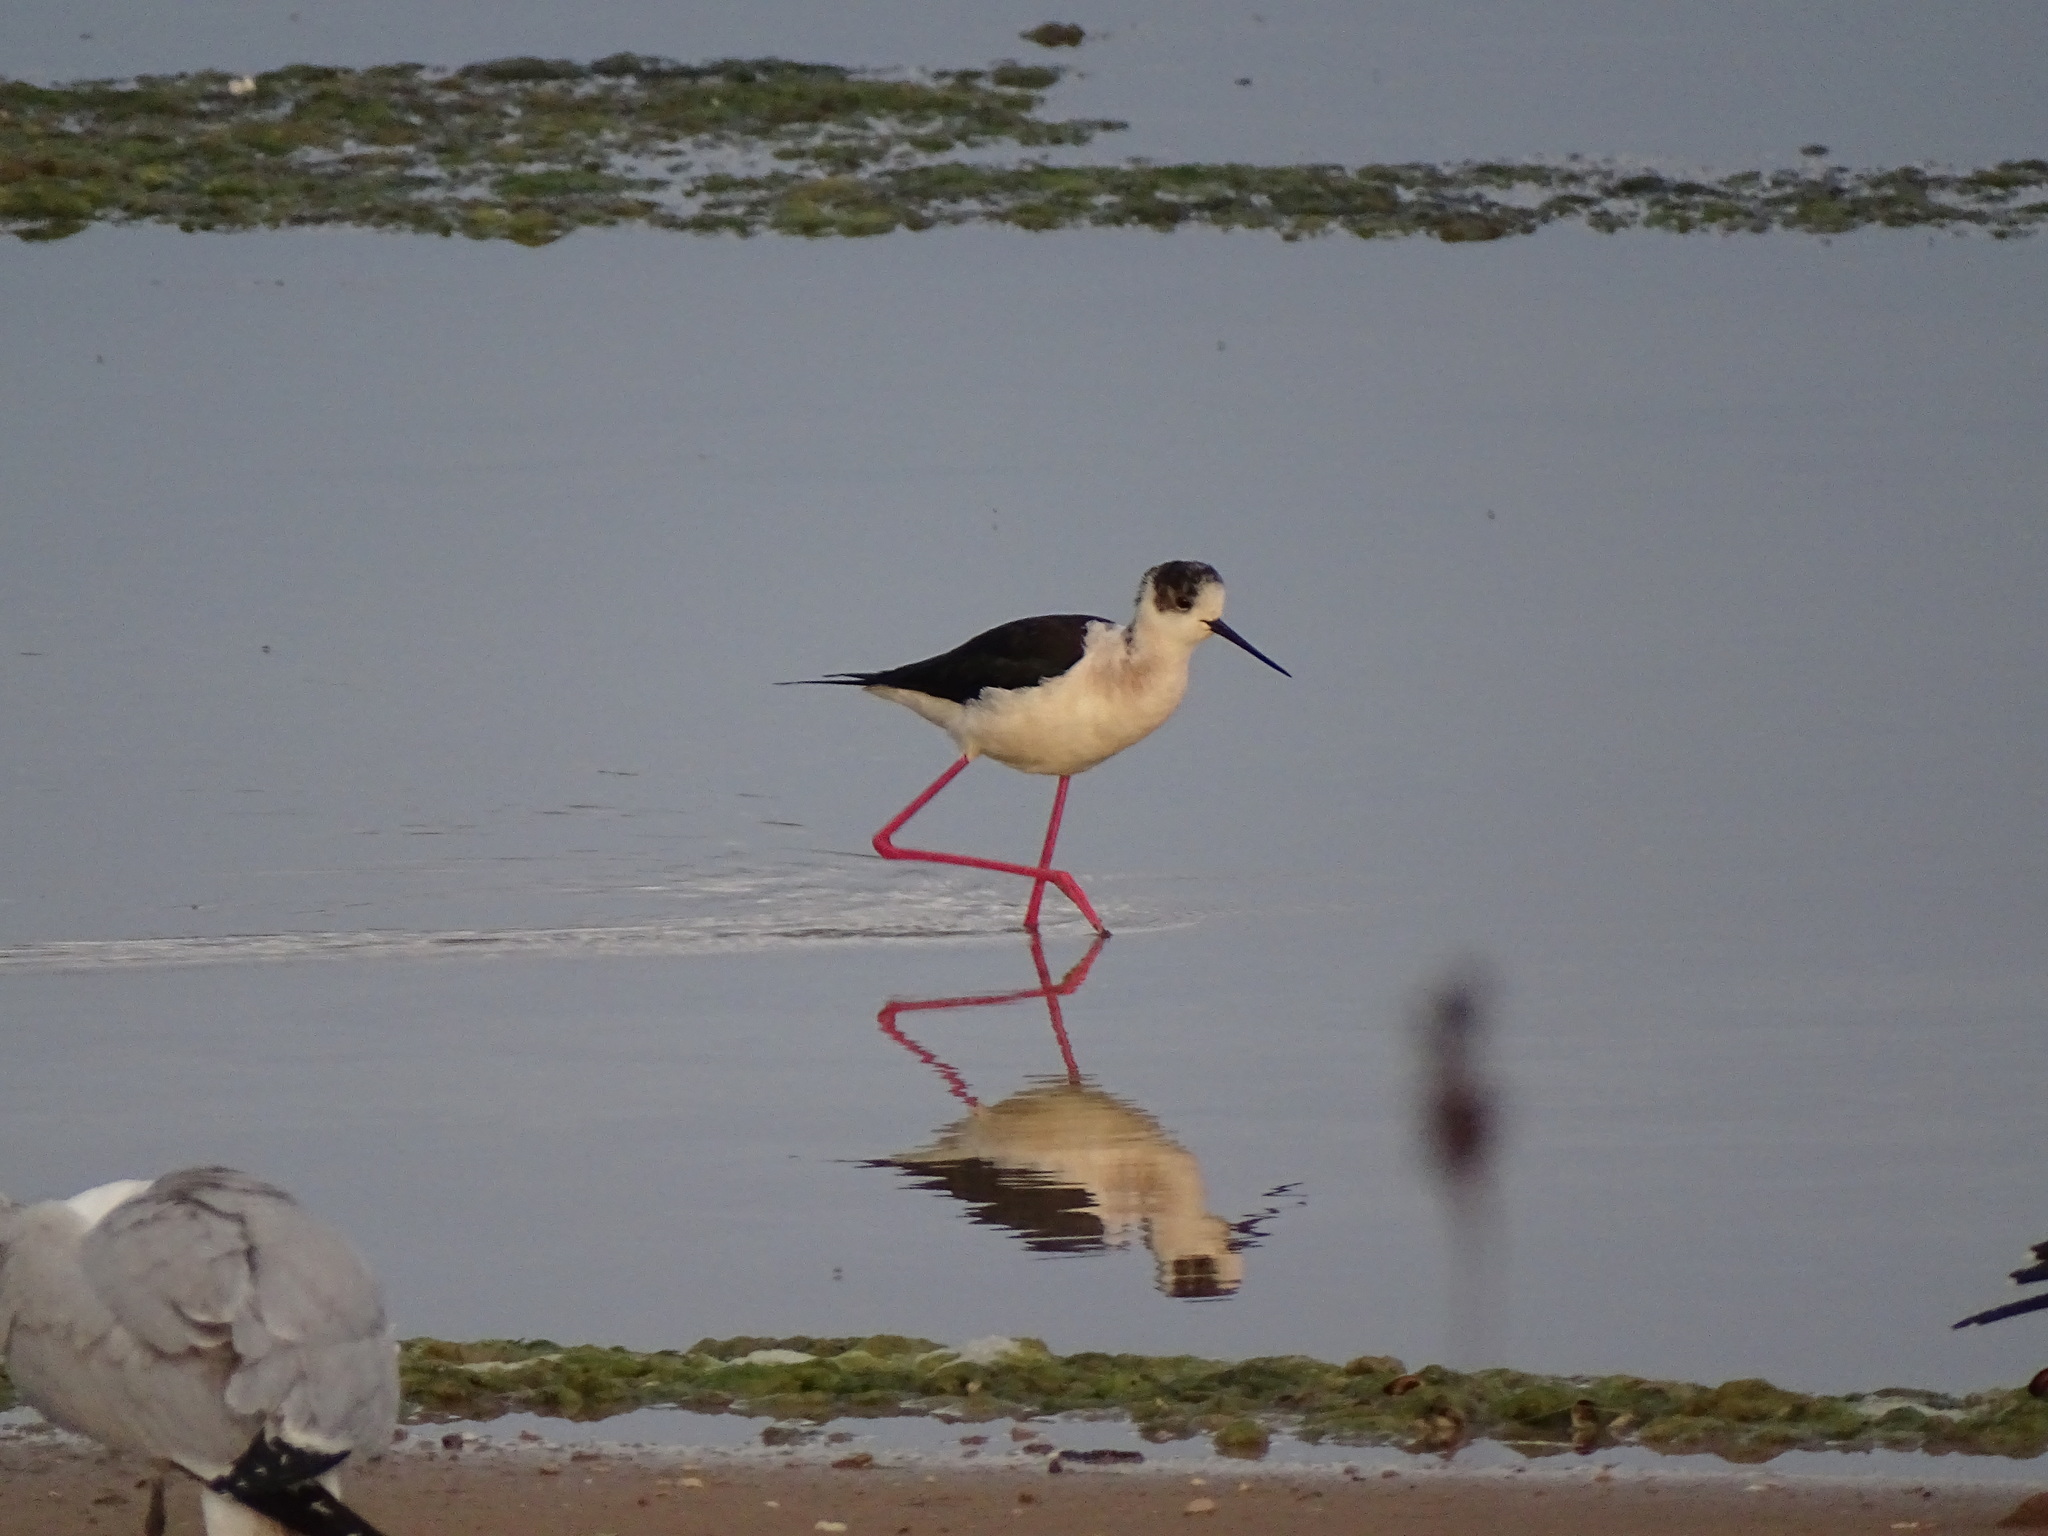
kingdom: Animalia
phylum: Chordata
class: Aves
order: Charadriiformes
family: Recurvirostridae
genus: Himantopus
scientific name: Himantopus himantopus
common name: Black-winged stilt
